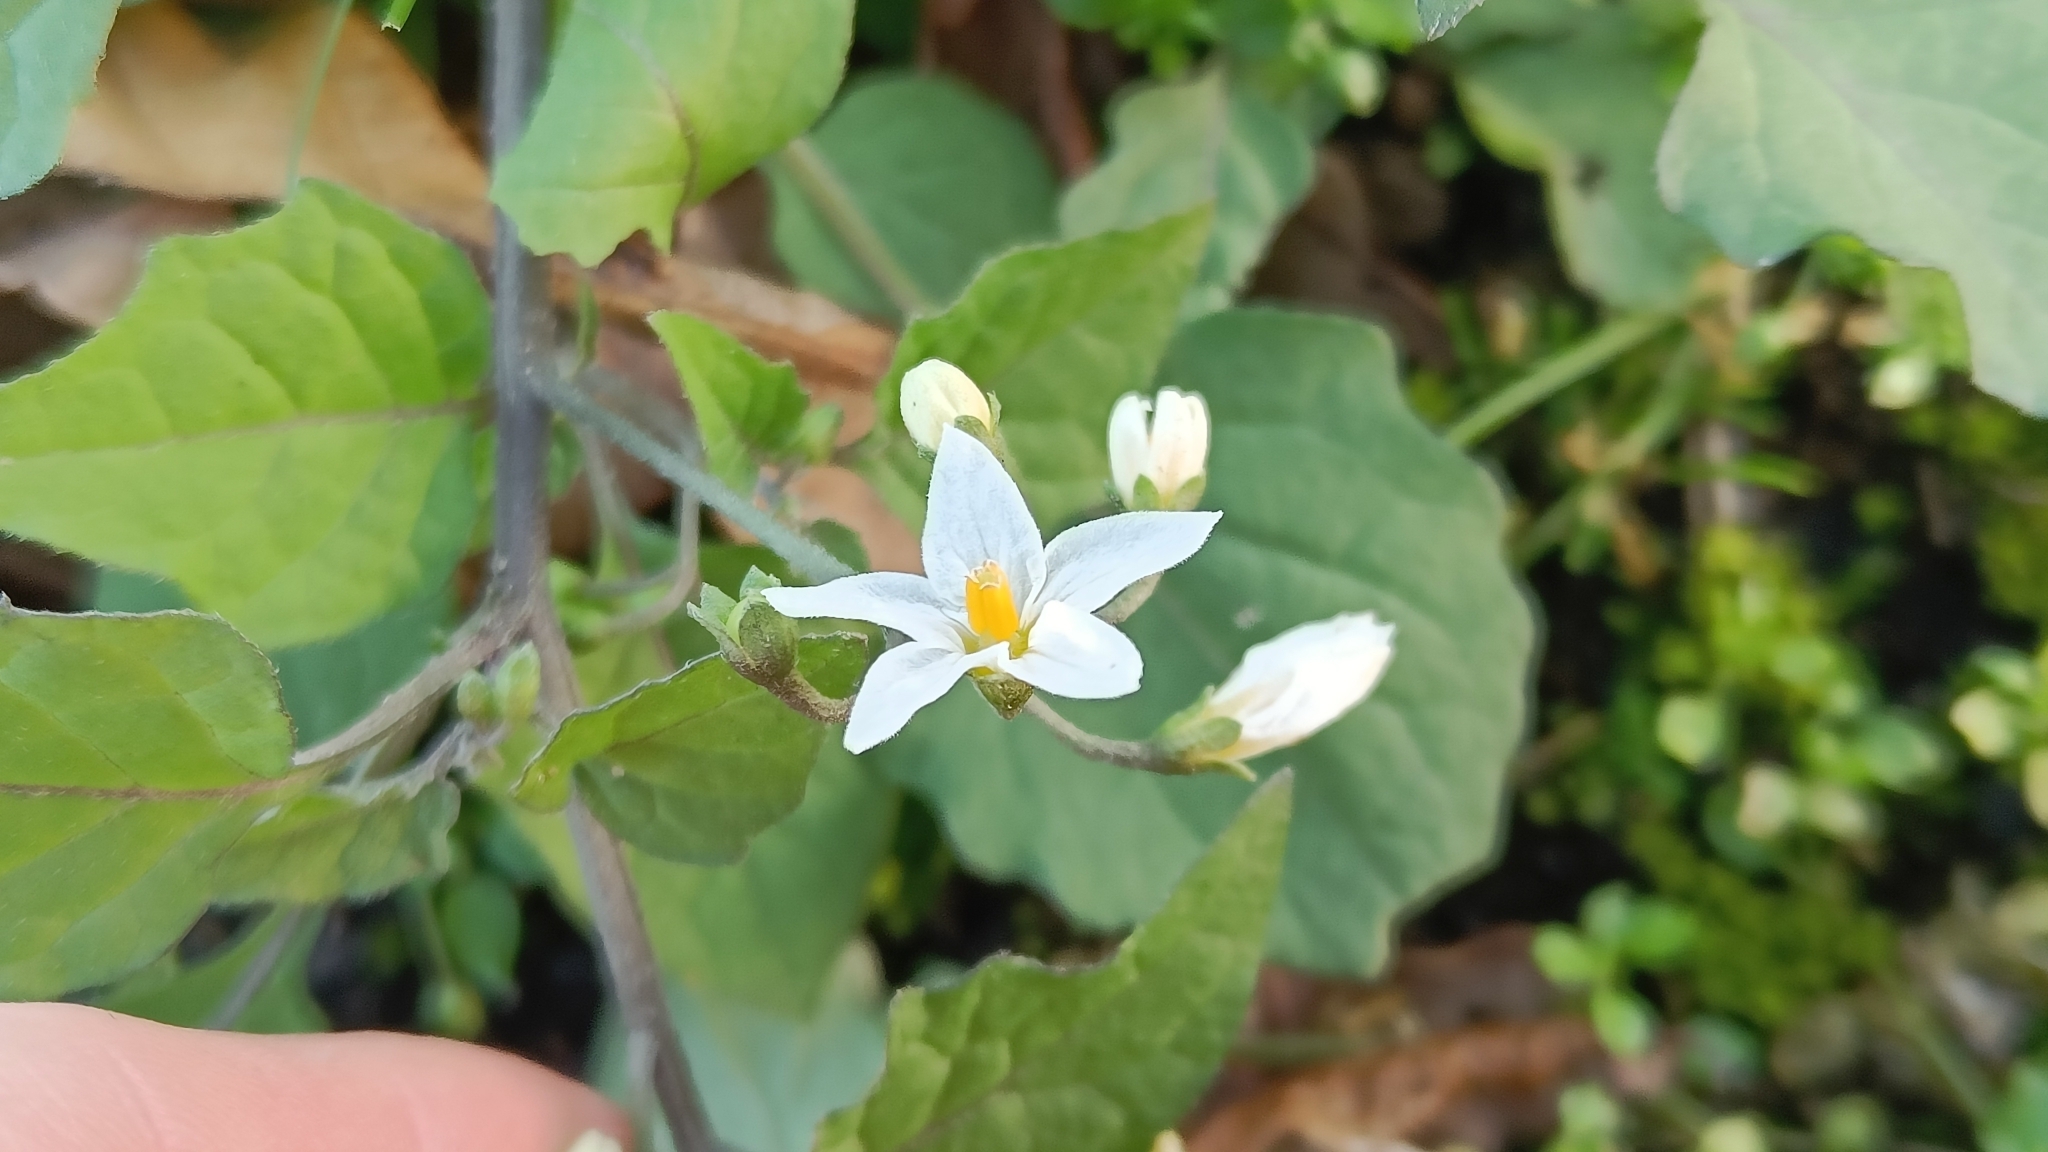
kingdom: Plantae
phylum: Tracheophyta
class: Magnoliopsida
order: Solanales
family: Solanaceae
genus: Solanum
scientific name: Solanum nigrum
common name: Black nightshade
